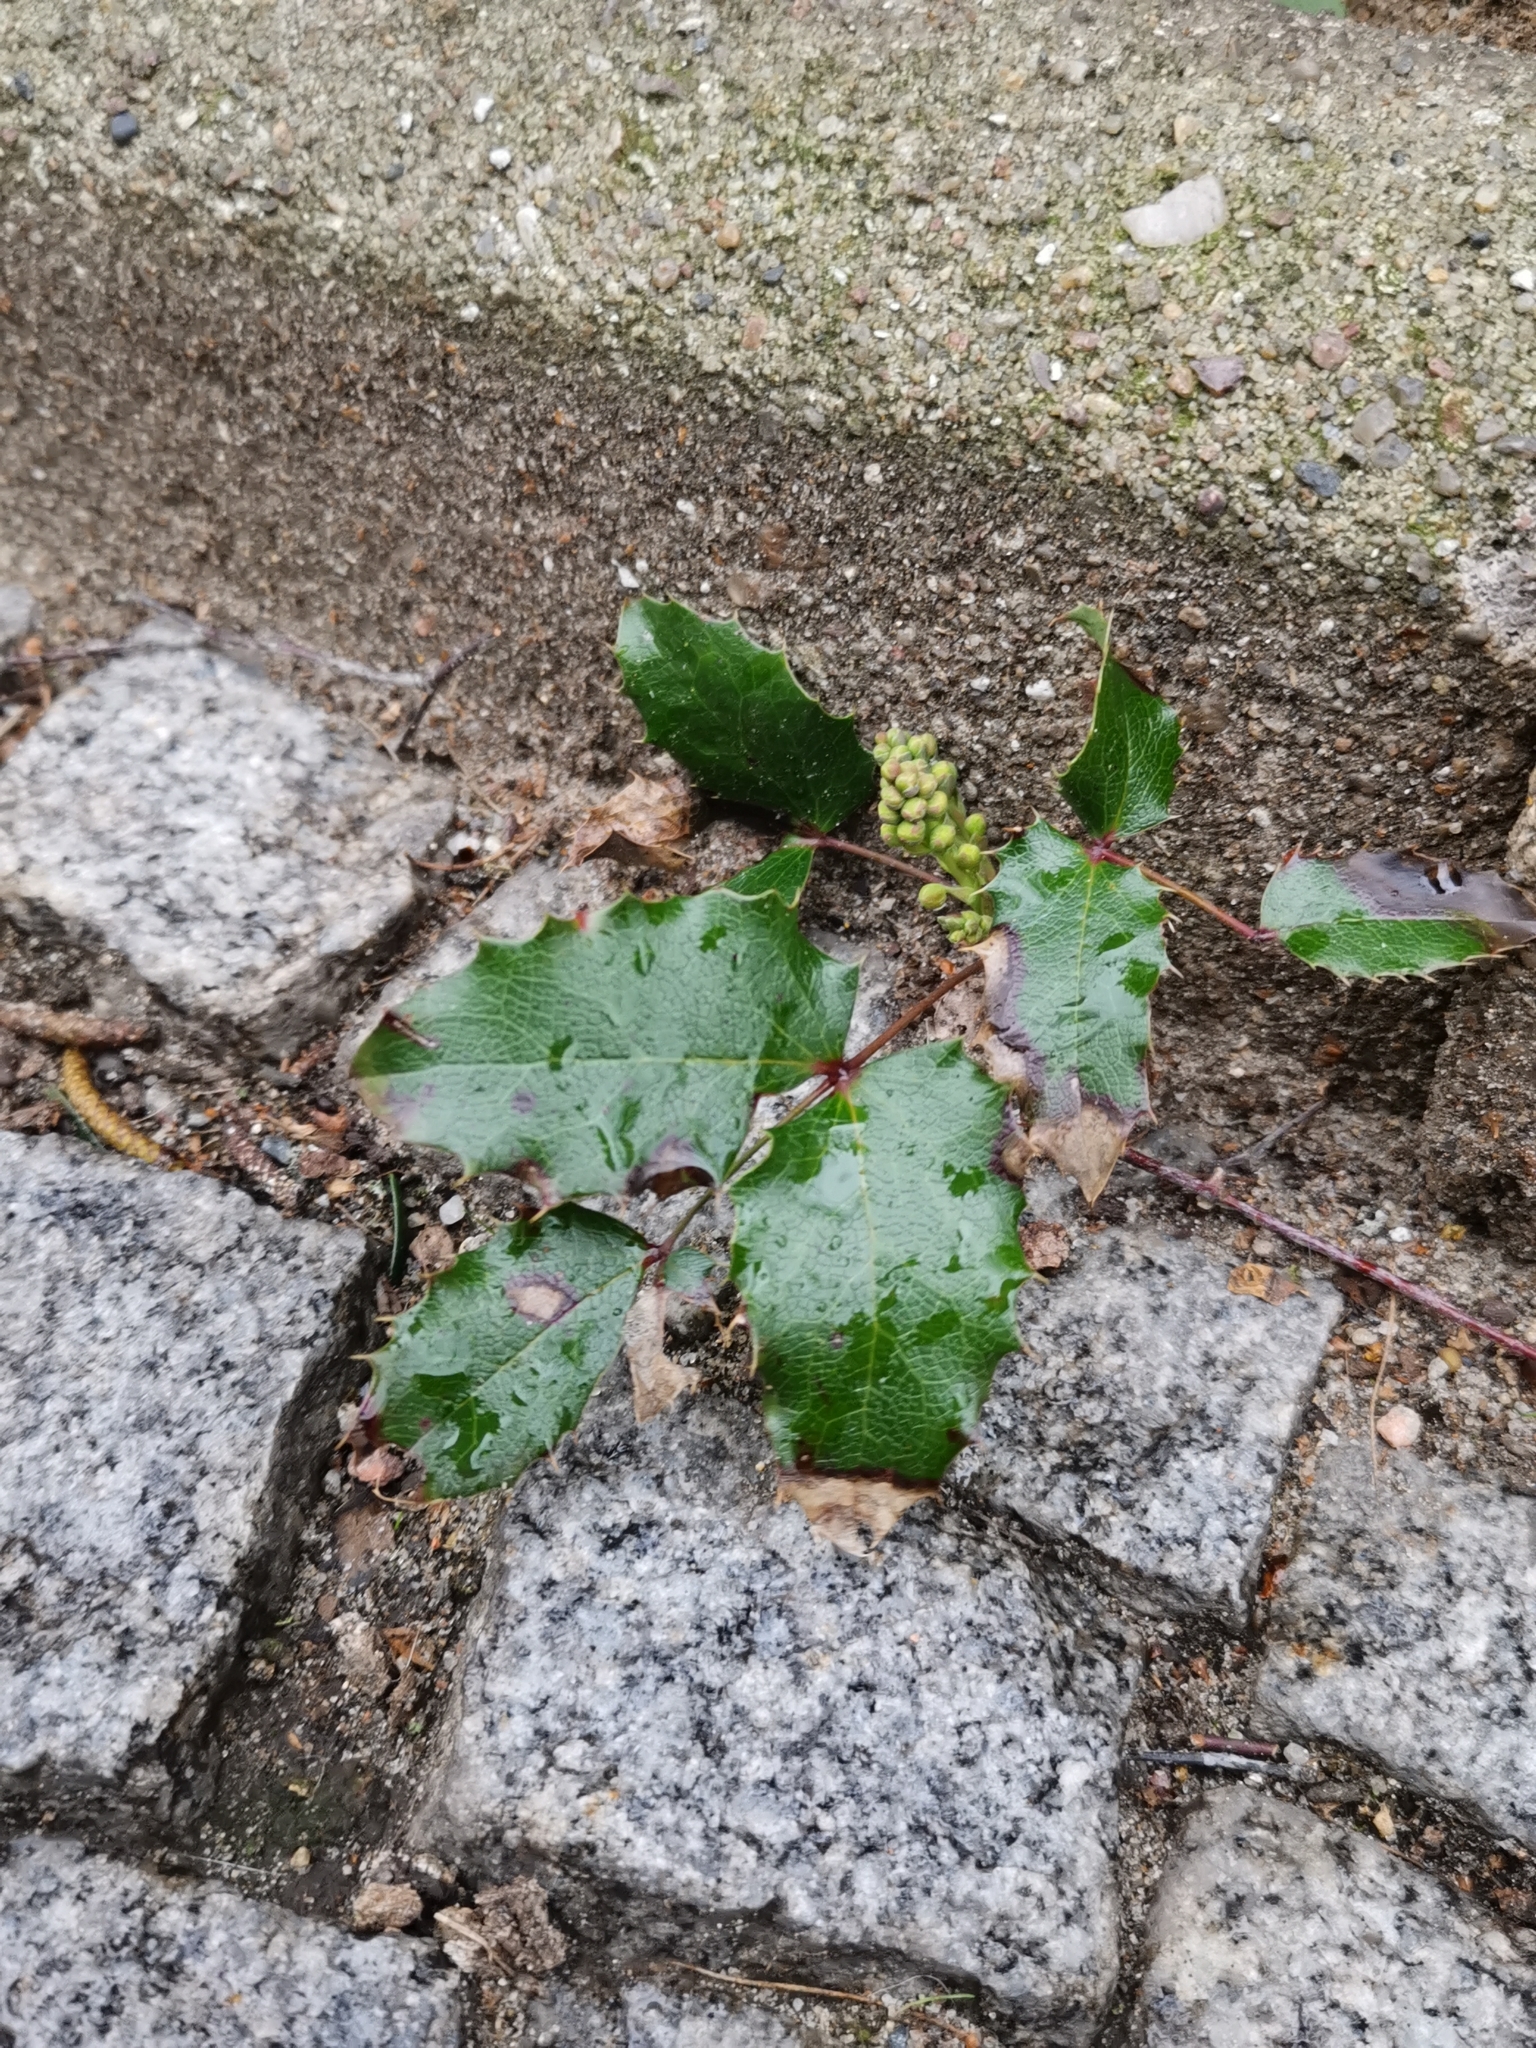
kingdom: Plantae
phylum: Tracheophyta
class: Magnoliopsida
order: Ranunculales
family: Berberidaceae
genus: Mahonia
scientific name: Mahonia aquifolium
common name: Oregon-grape
